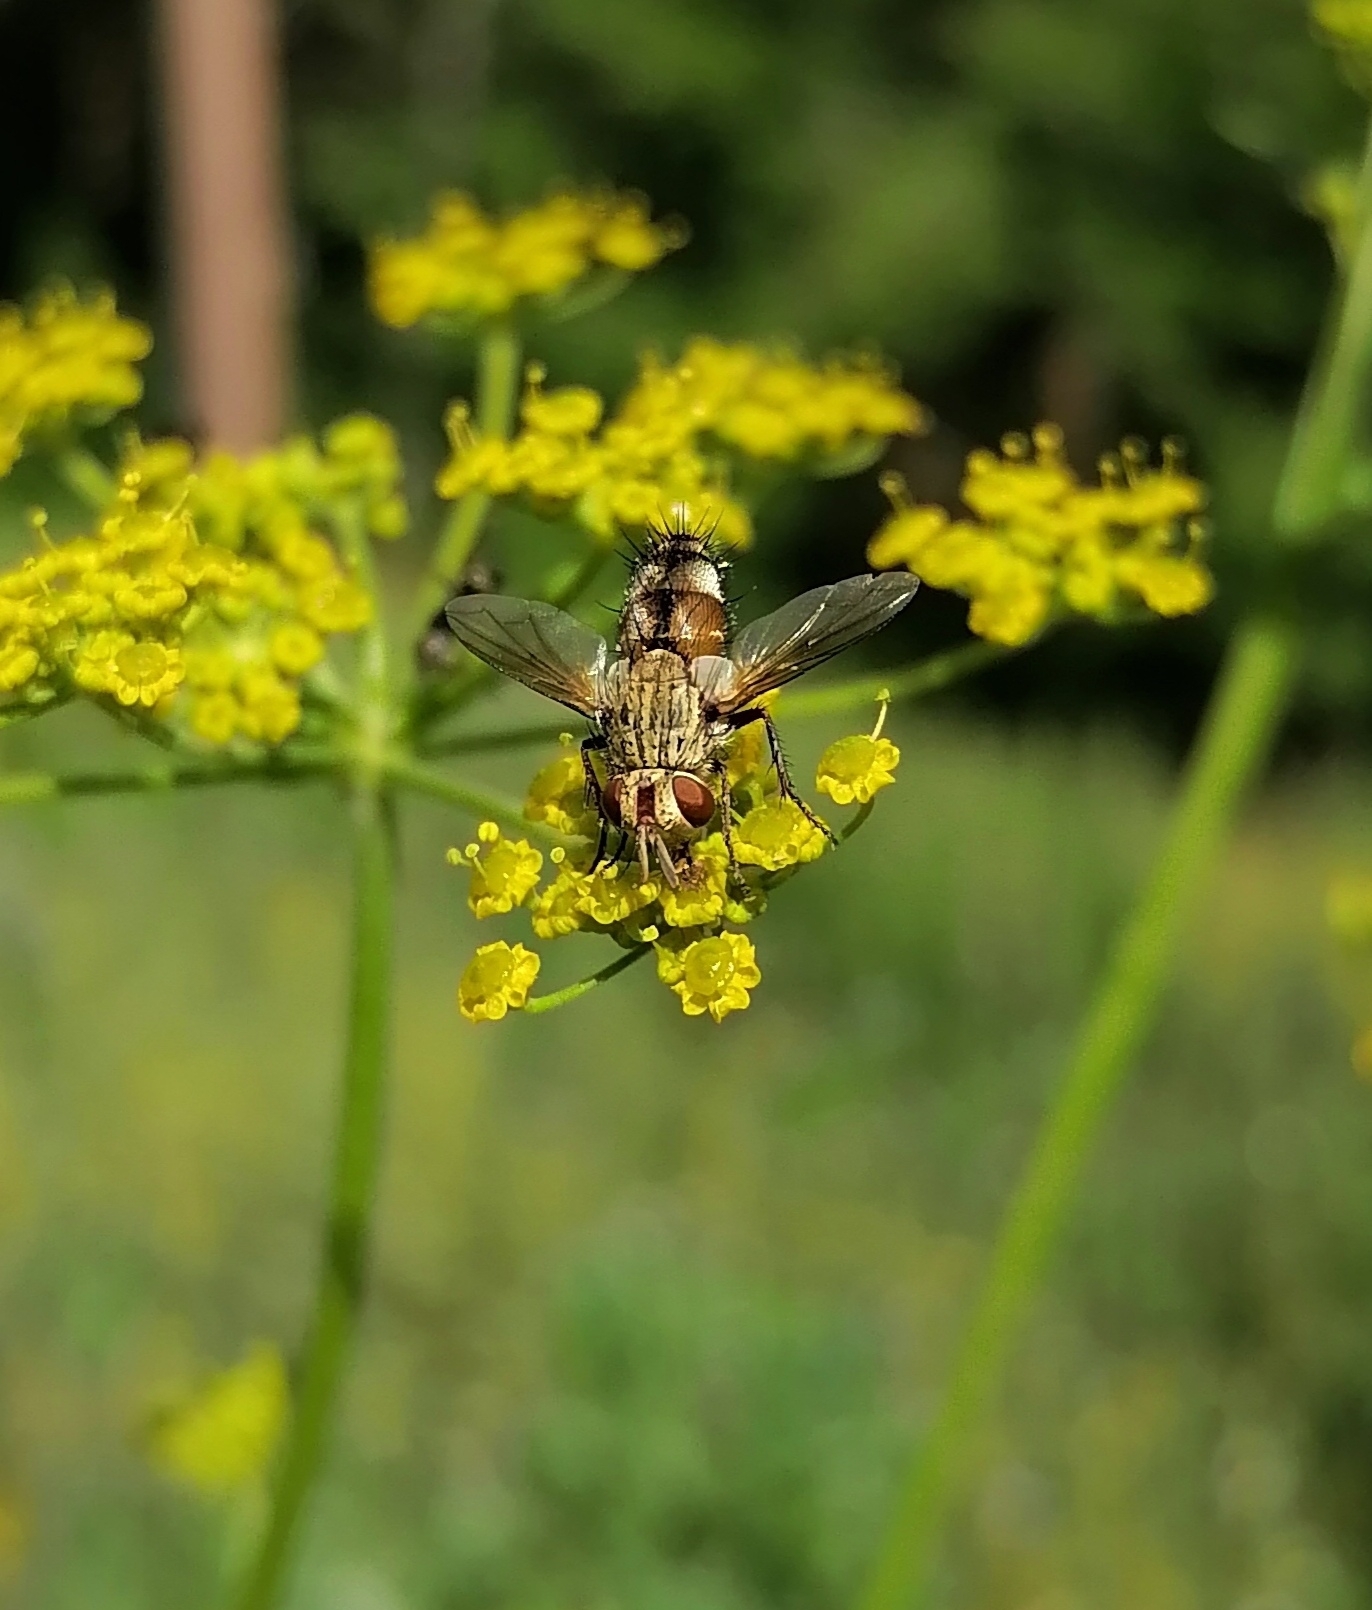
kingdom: Animalia
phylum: Arthropoda
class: Insecta
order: Diptera
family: Tachinidae
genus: Frontina
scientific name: Frontina laeta
